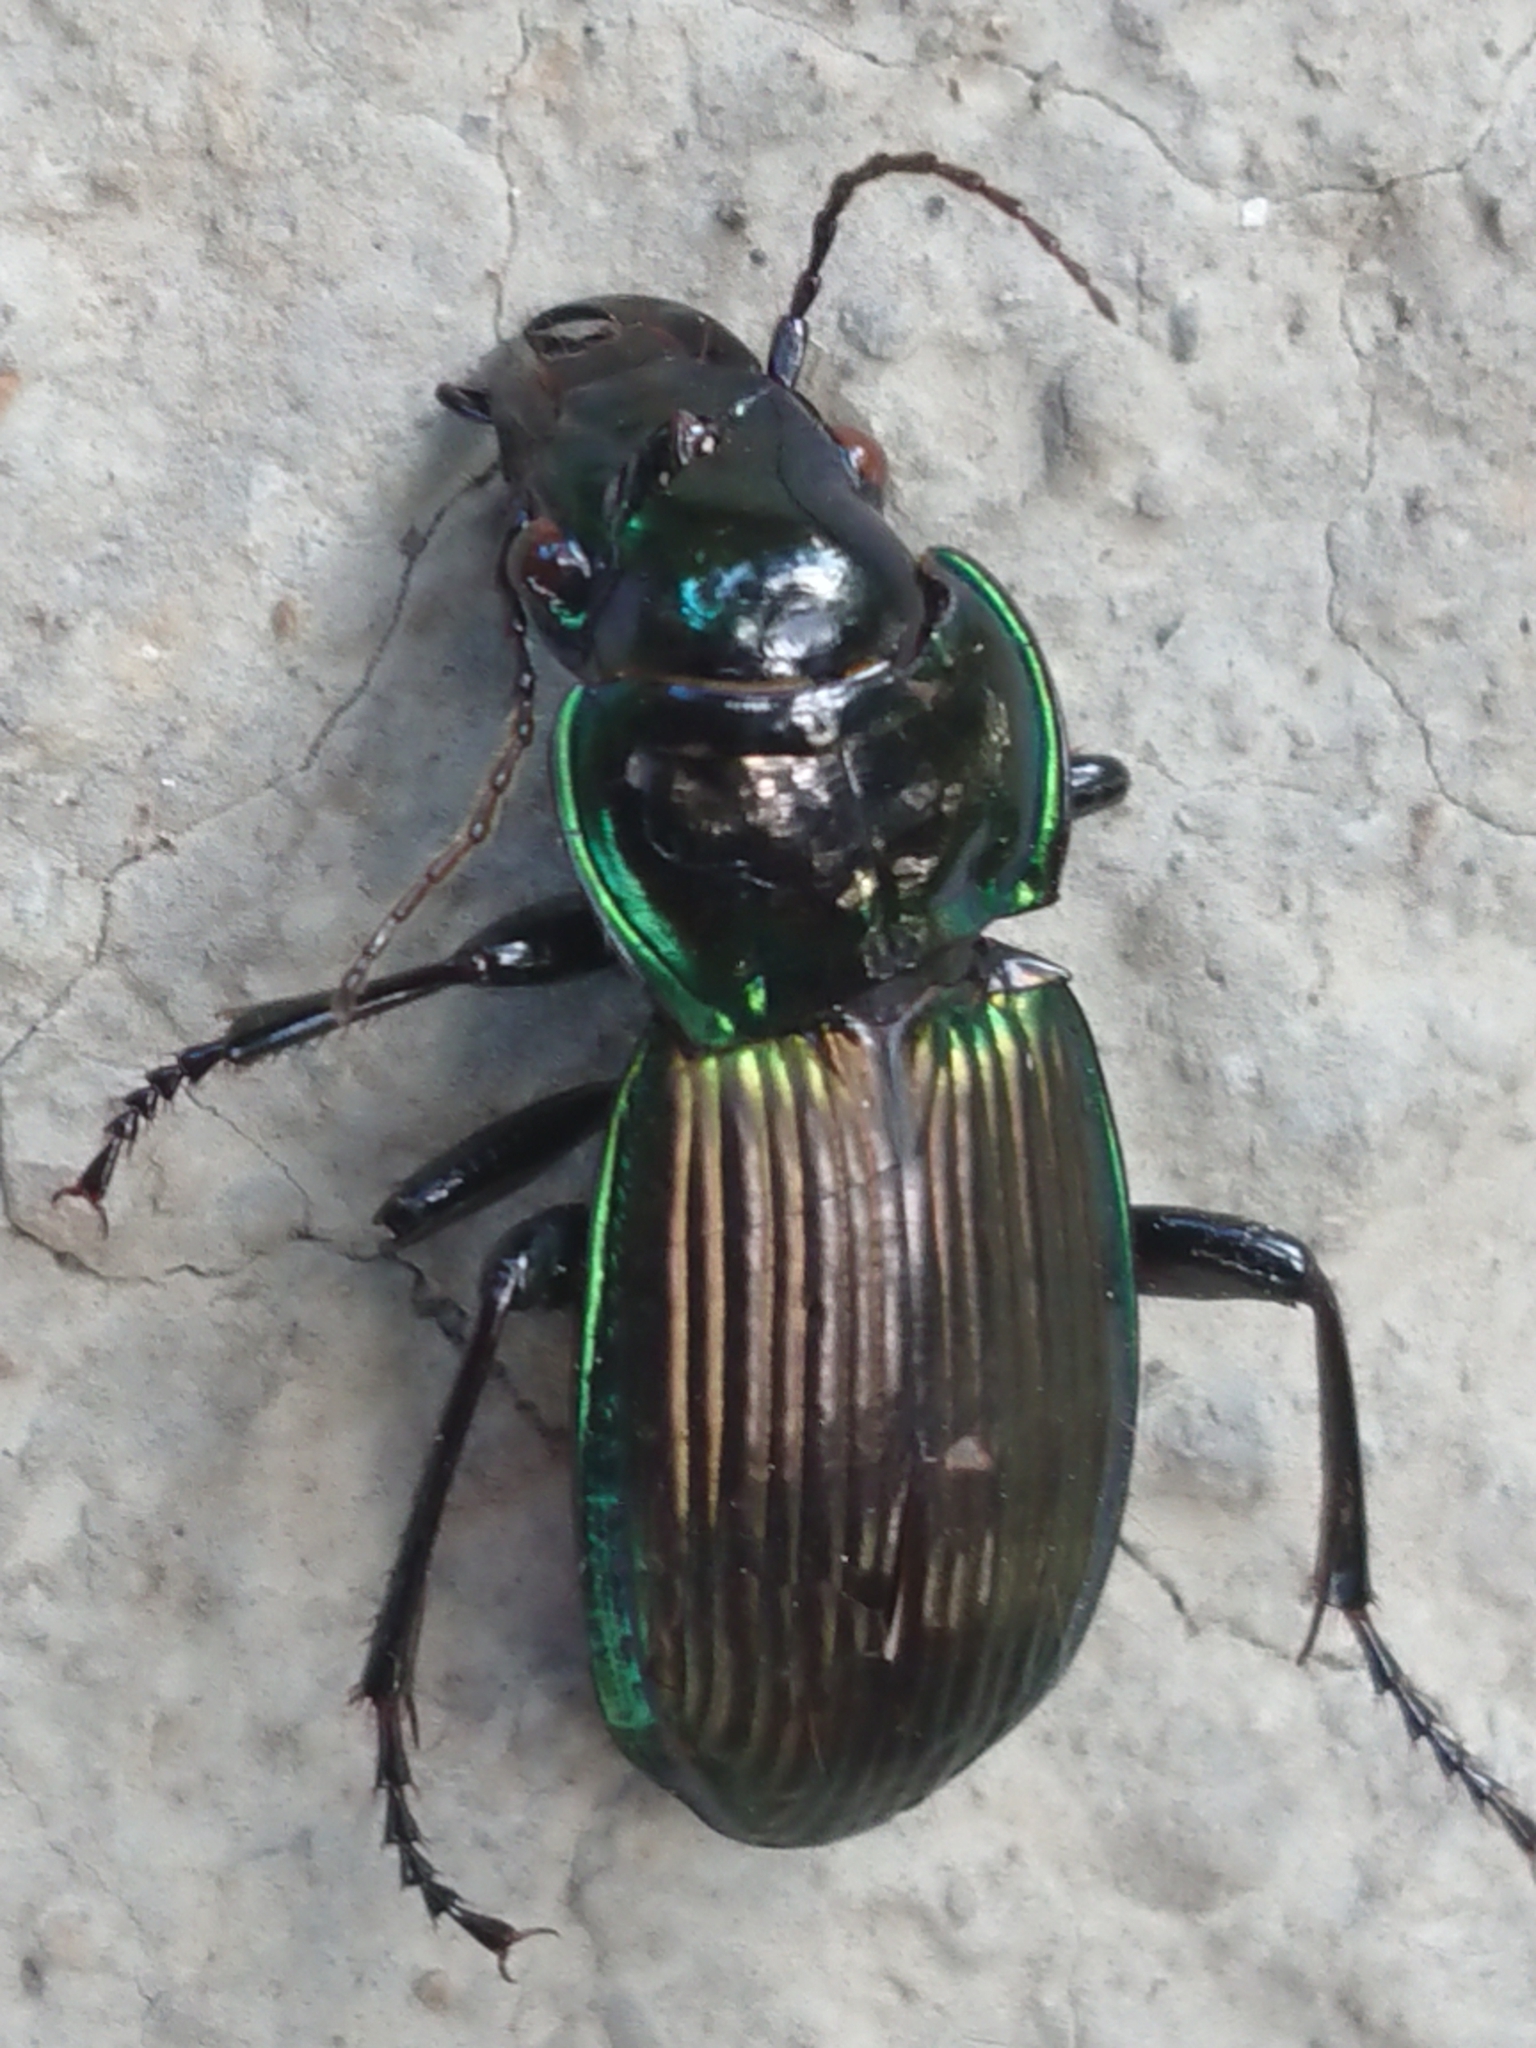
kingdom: Animalia
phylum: Arthropoda
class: Insecta
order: Coleoptera
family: Carabidae
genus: Megadromus
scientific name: Megadromus antarcticus
